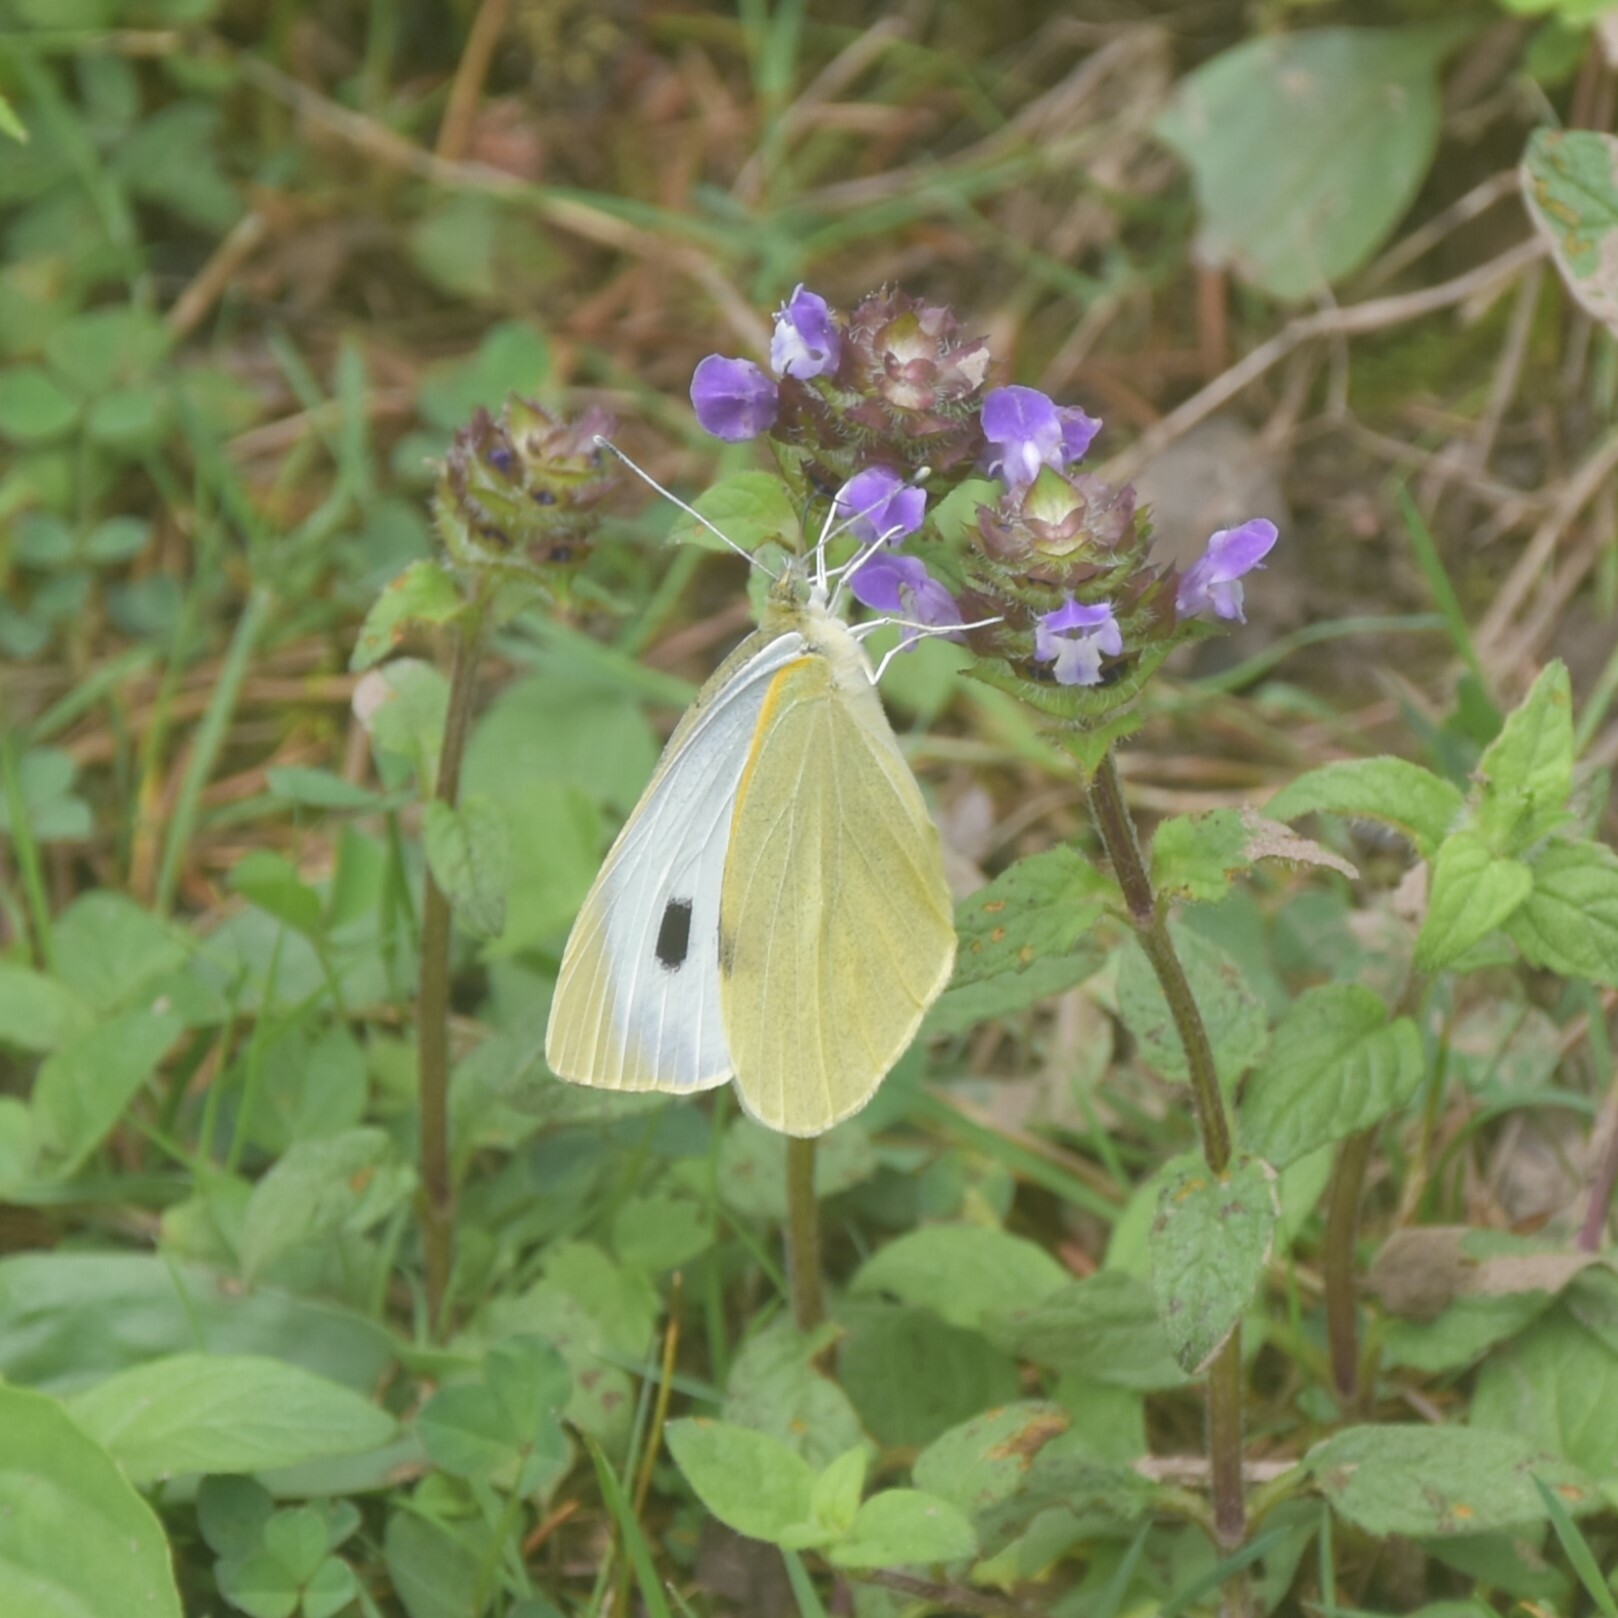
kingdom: Animalia
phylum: Arthropoda
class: Insecta
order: Lepidoptera
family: Pieridae
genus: Pieris
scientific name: Pieris brassicae
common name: Large white
